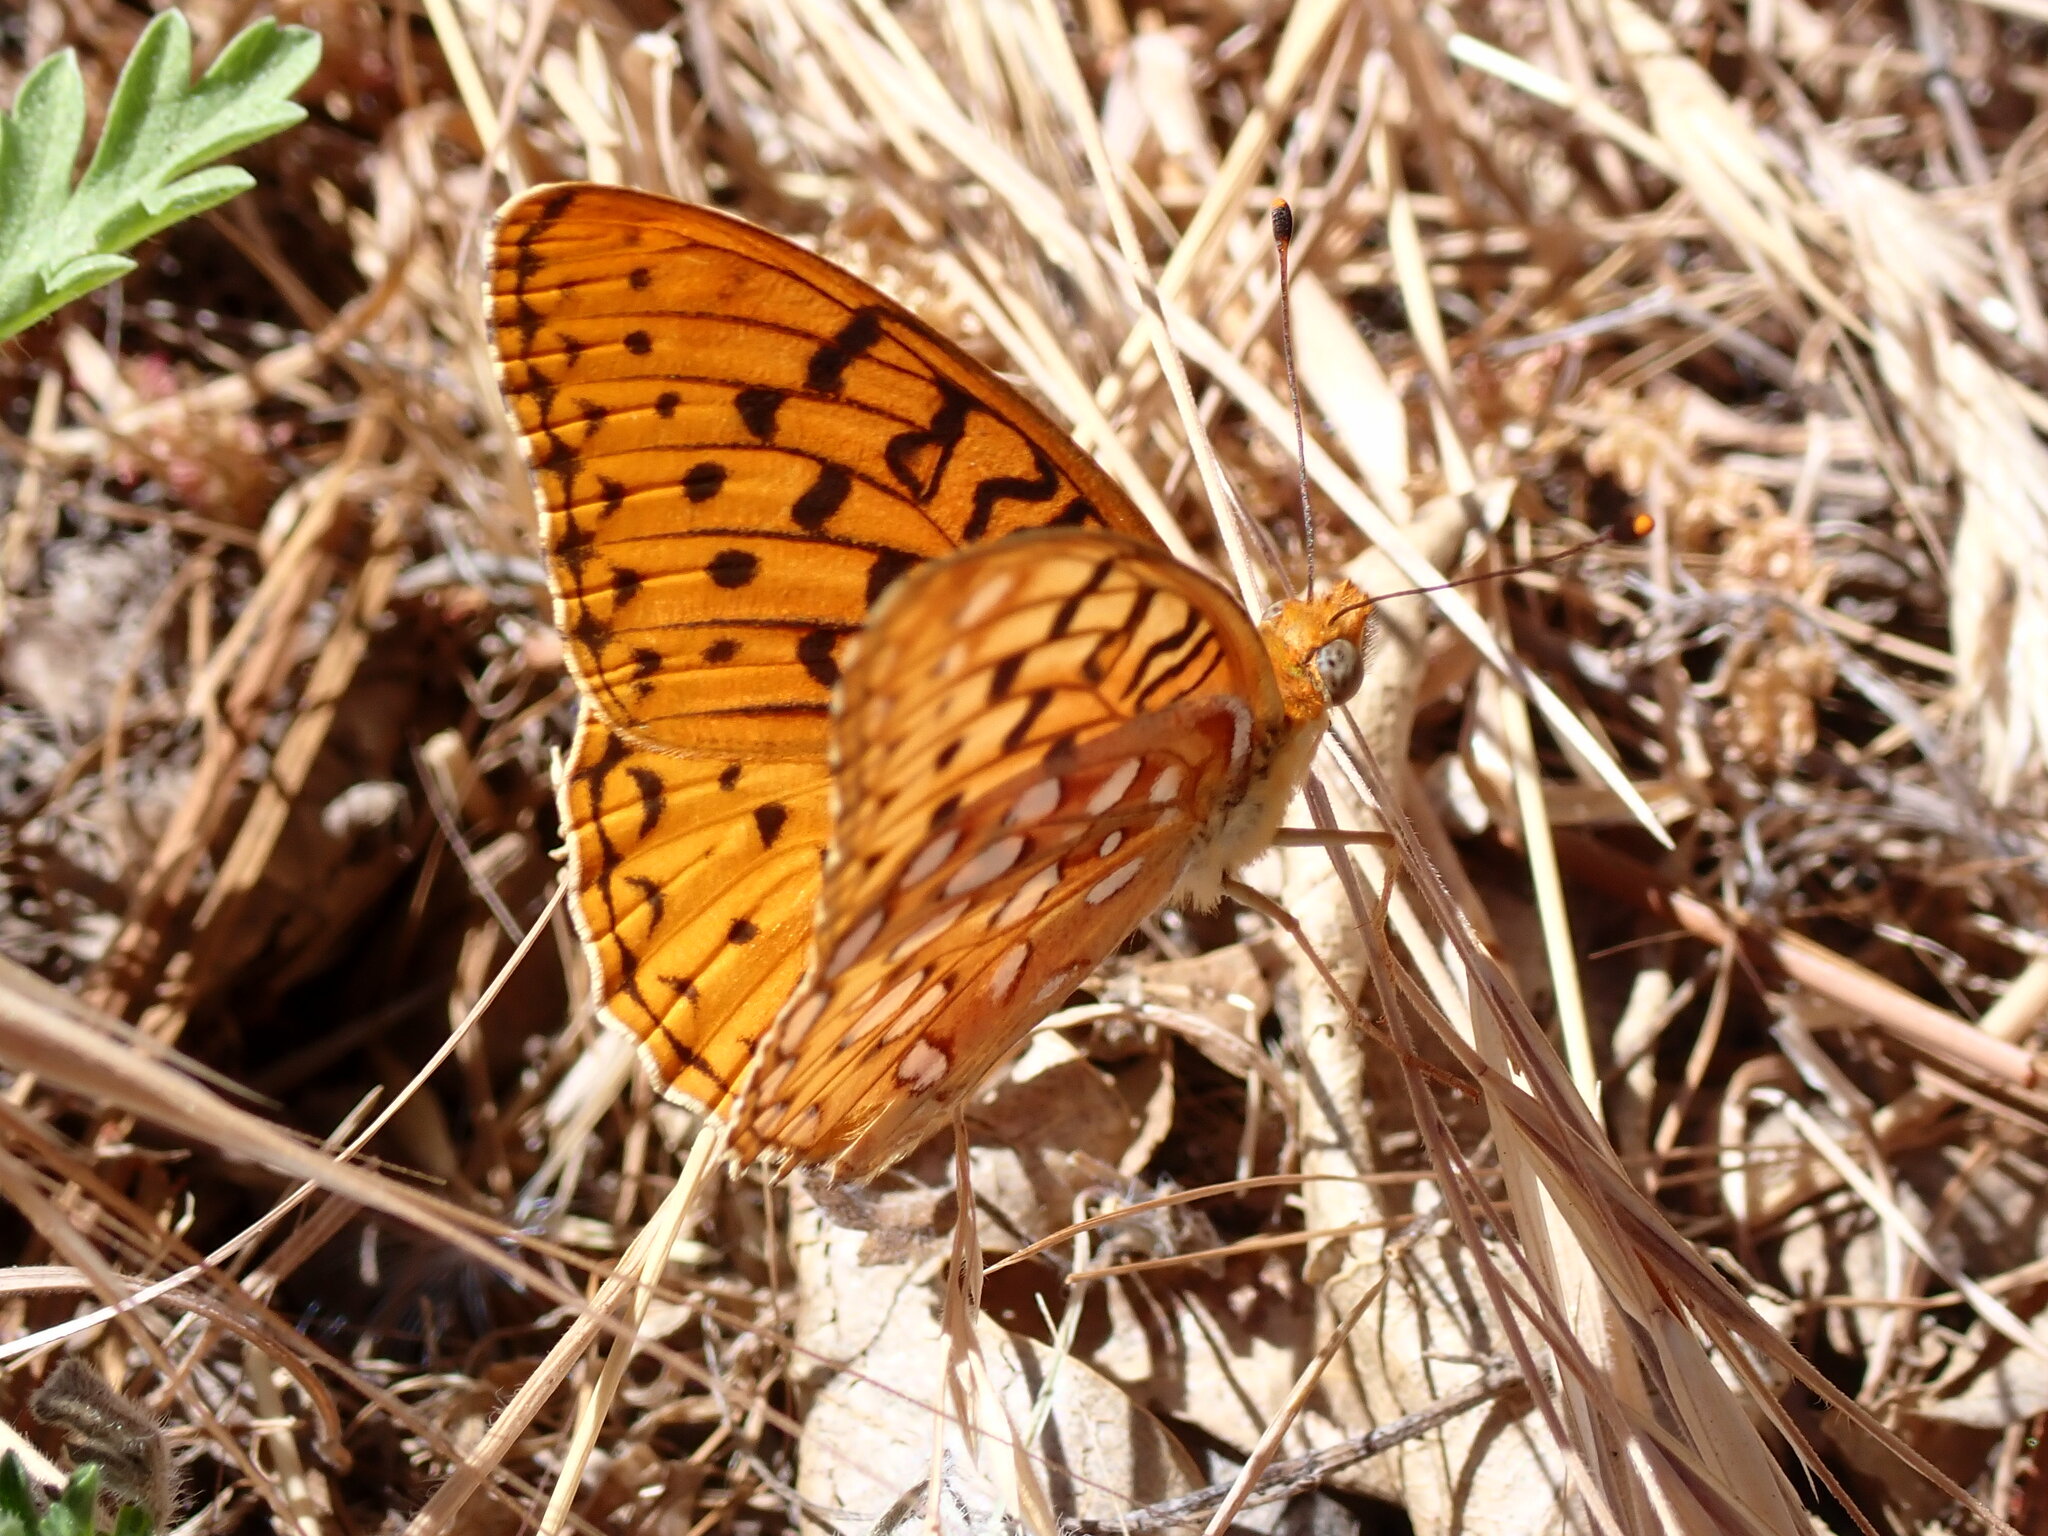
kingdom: Animalia
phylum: Arthropoda
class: Insecta
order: Lepidoptera
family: Nymphalidae
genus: Argynnis
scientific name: Argynnis coronis
